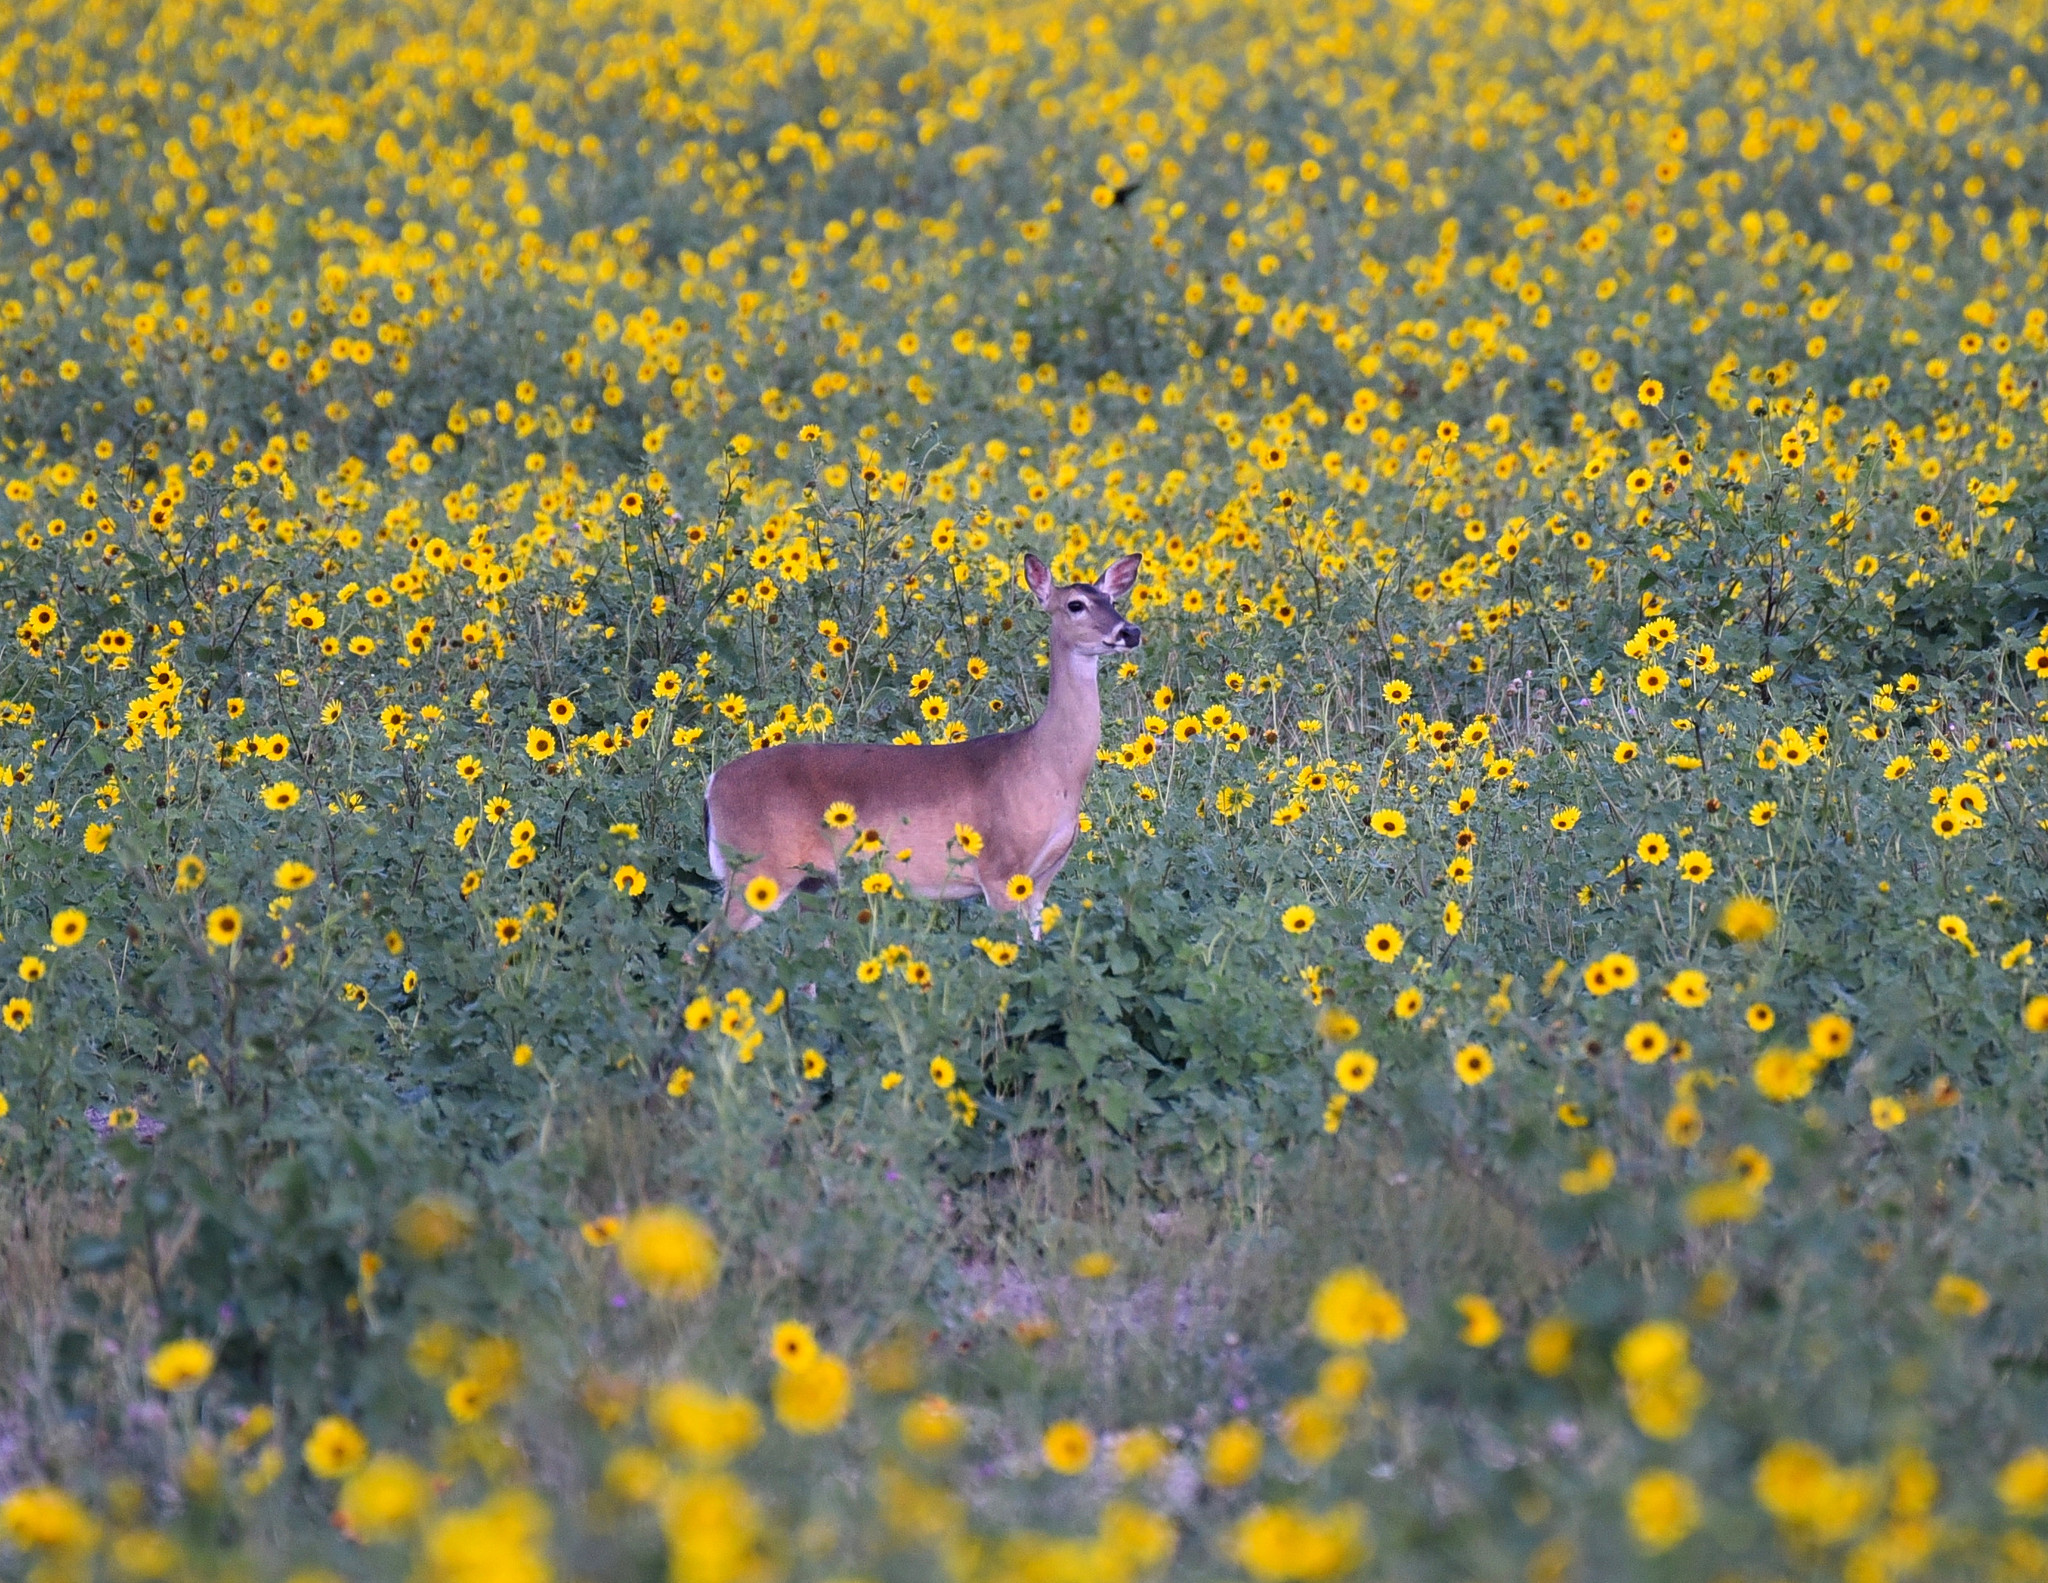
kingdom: Animalia
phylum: Chordata
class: Mammalia
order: Artiodactyla
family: Cervidae
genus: Odocoileus
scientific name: Odocoileus virginianus
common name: White-tailed deer
